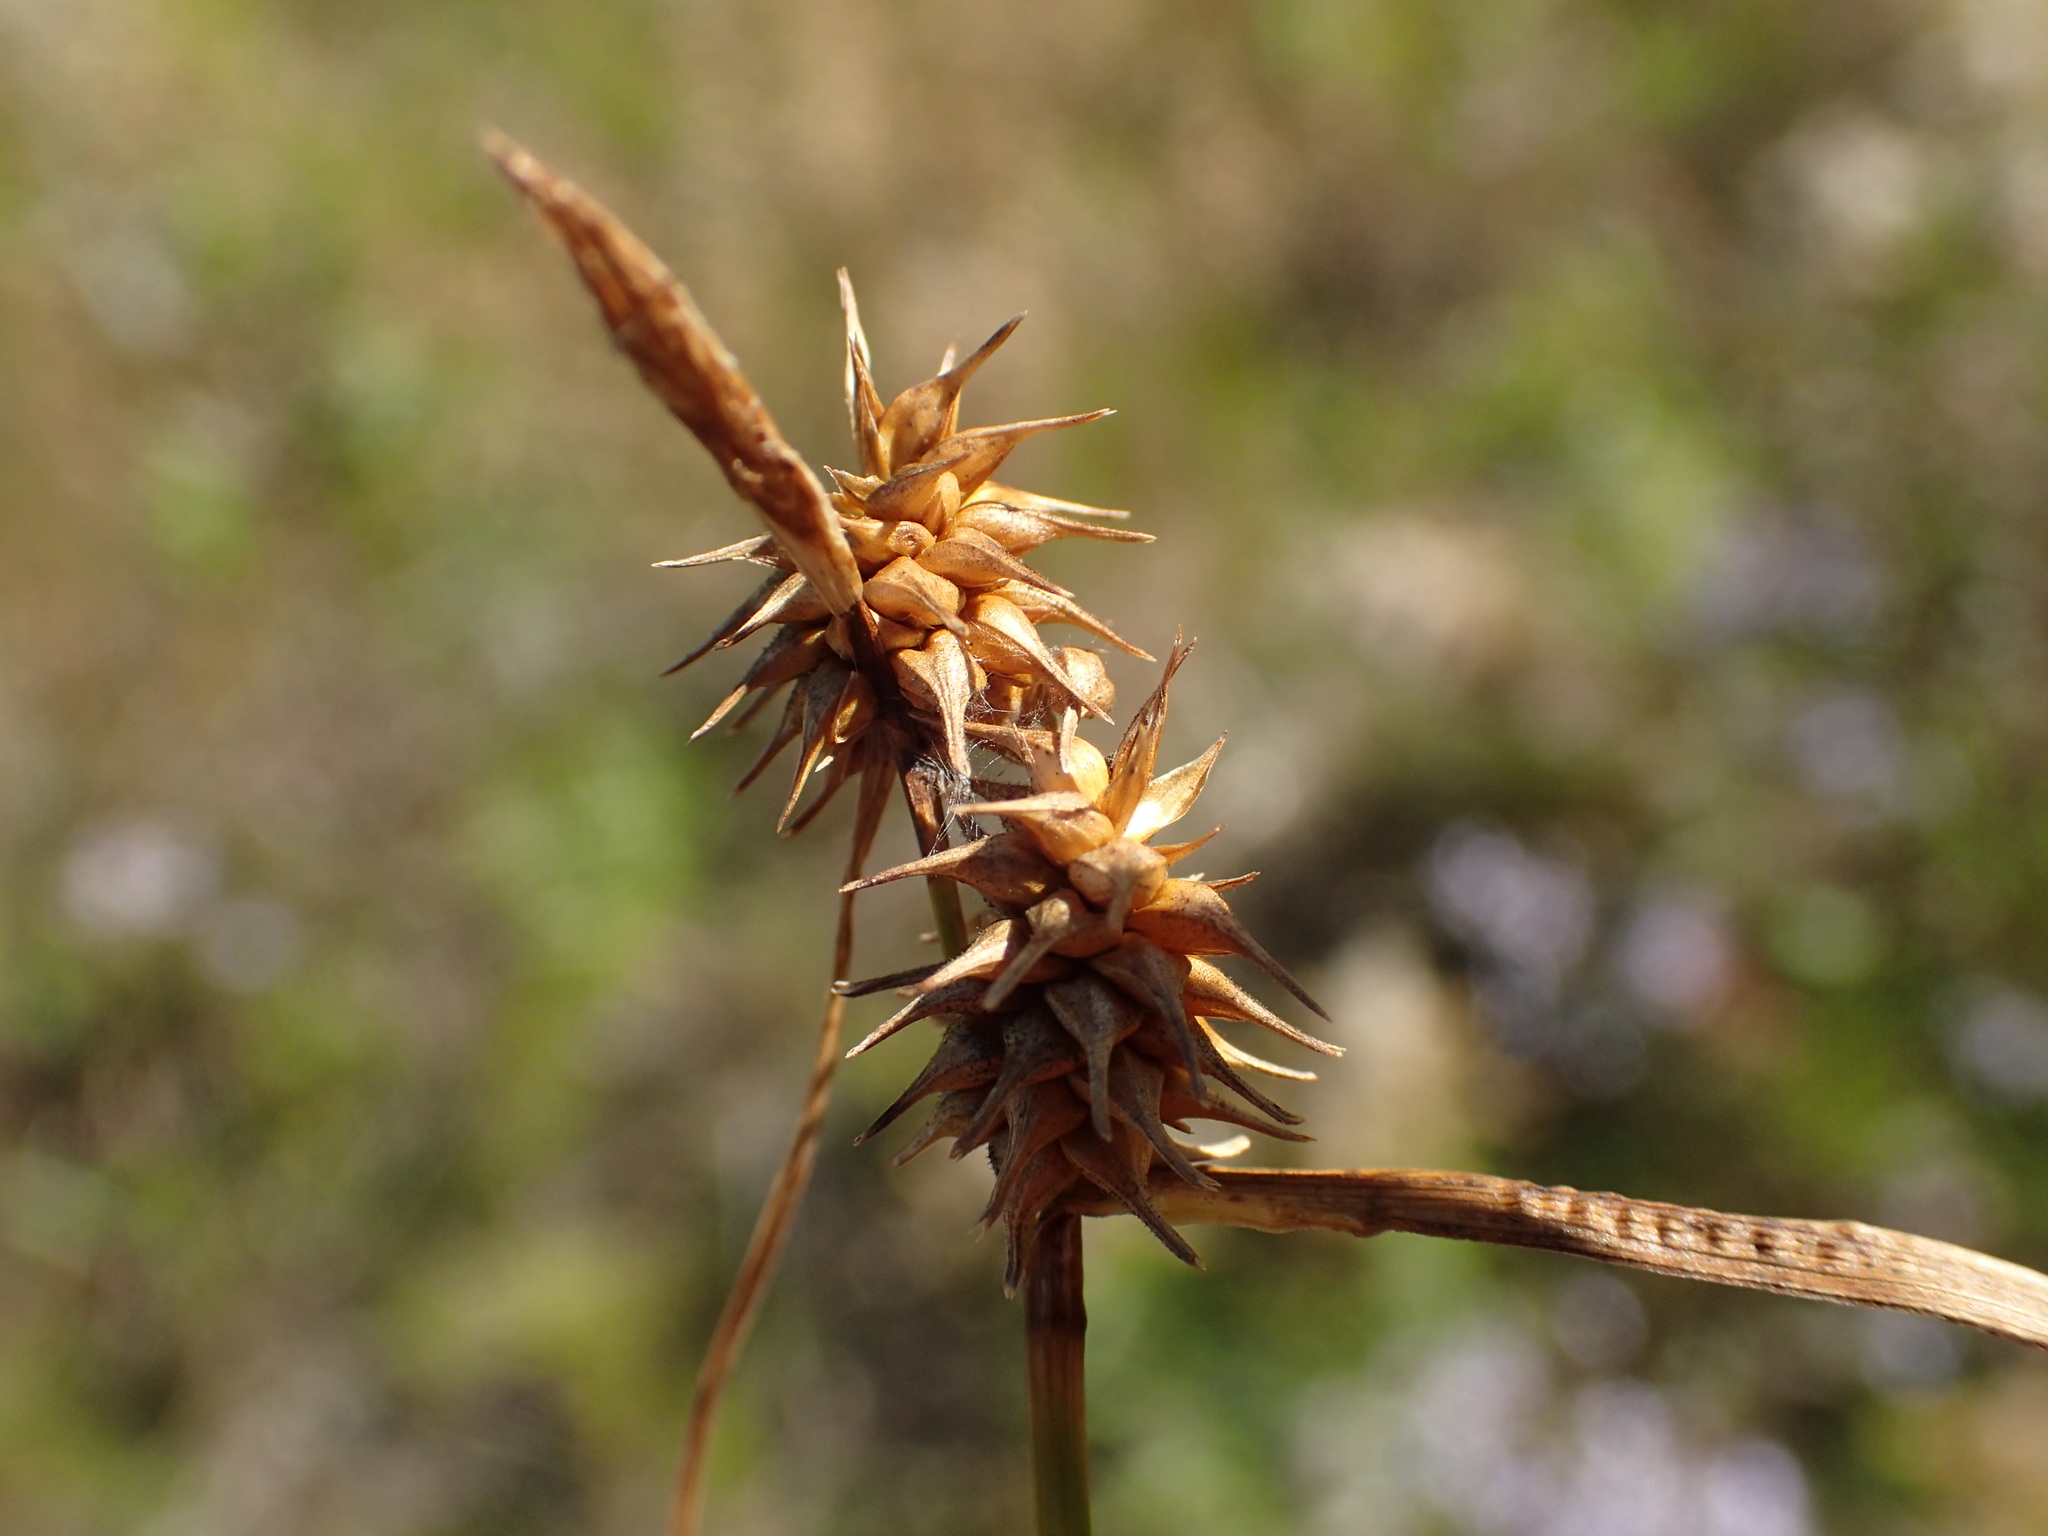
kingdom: Plantae
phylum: Tracheophyta
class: Liliopsida
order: Poales
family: Cyperaceae
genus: Carex
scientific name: Carex cryptolepis
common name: Northeastern sedge
